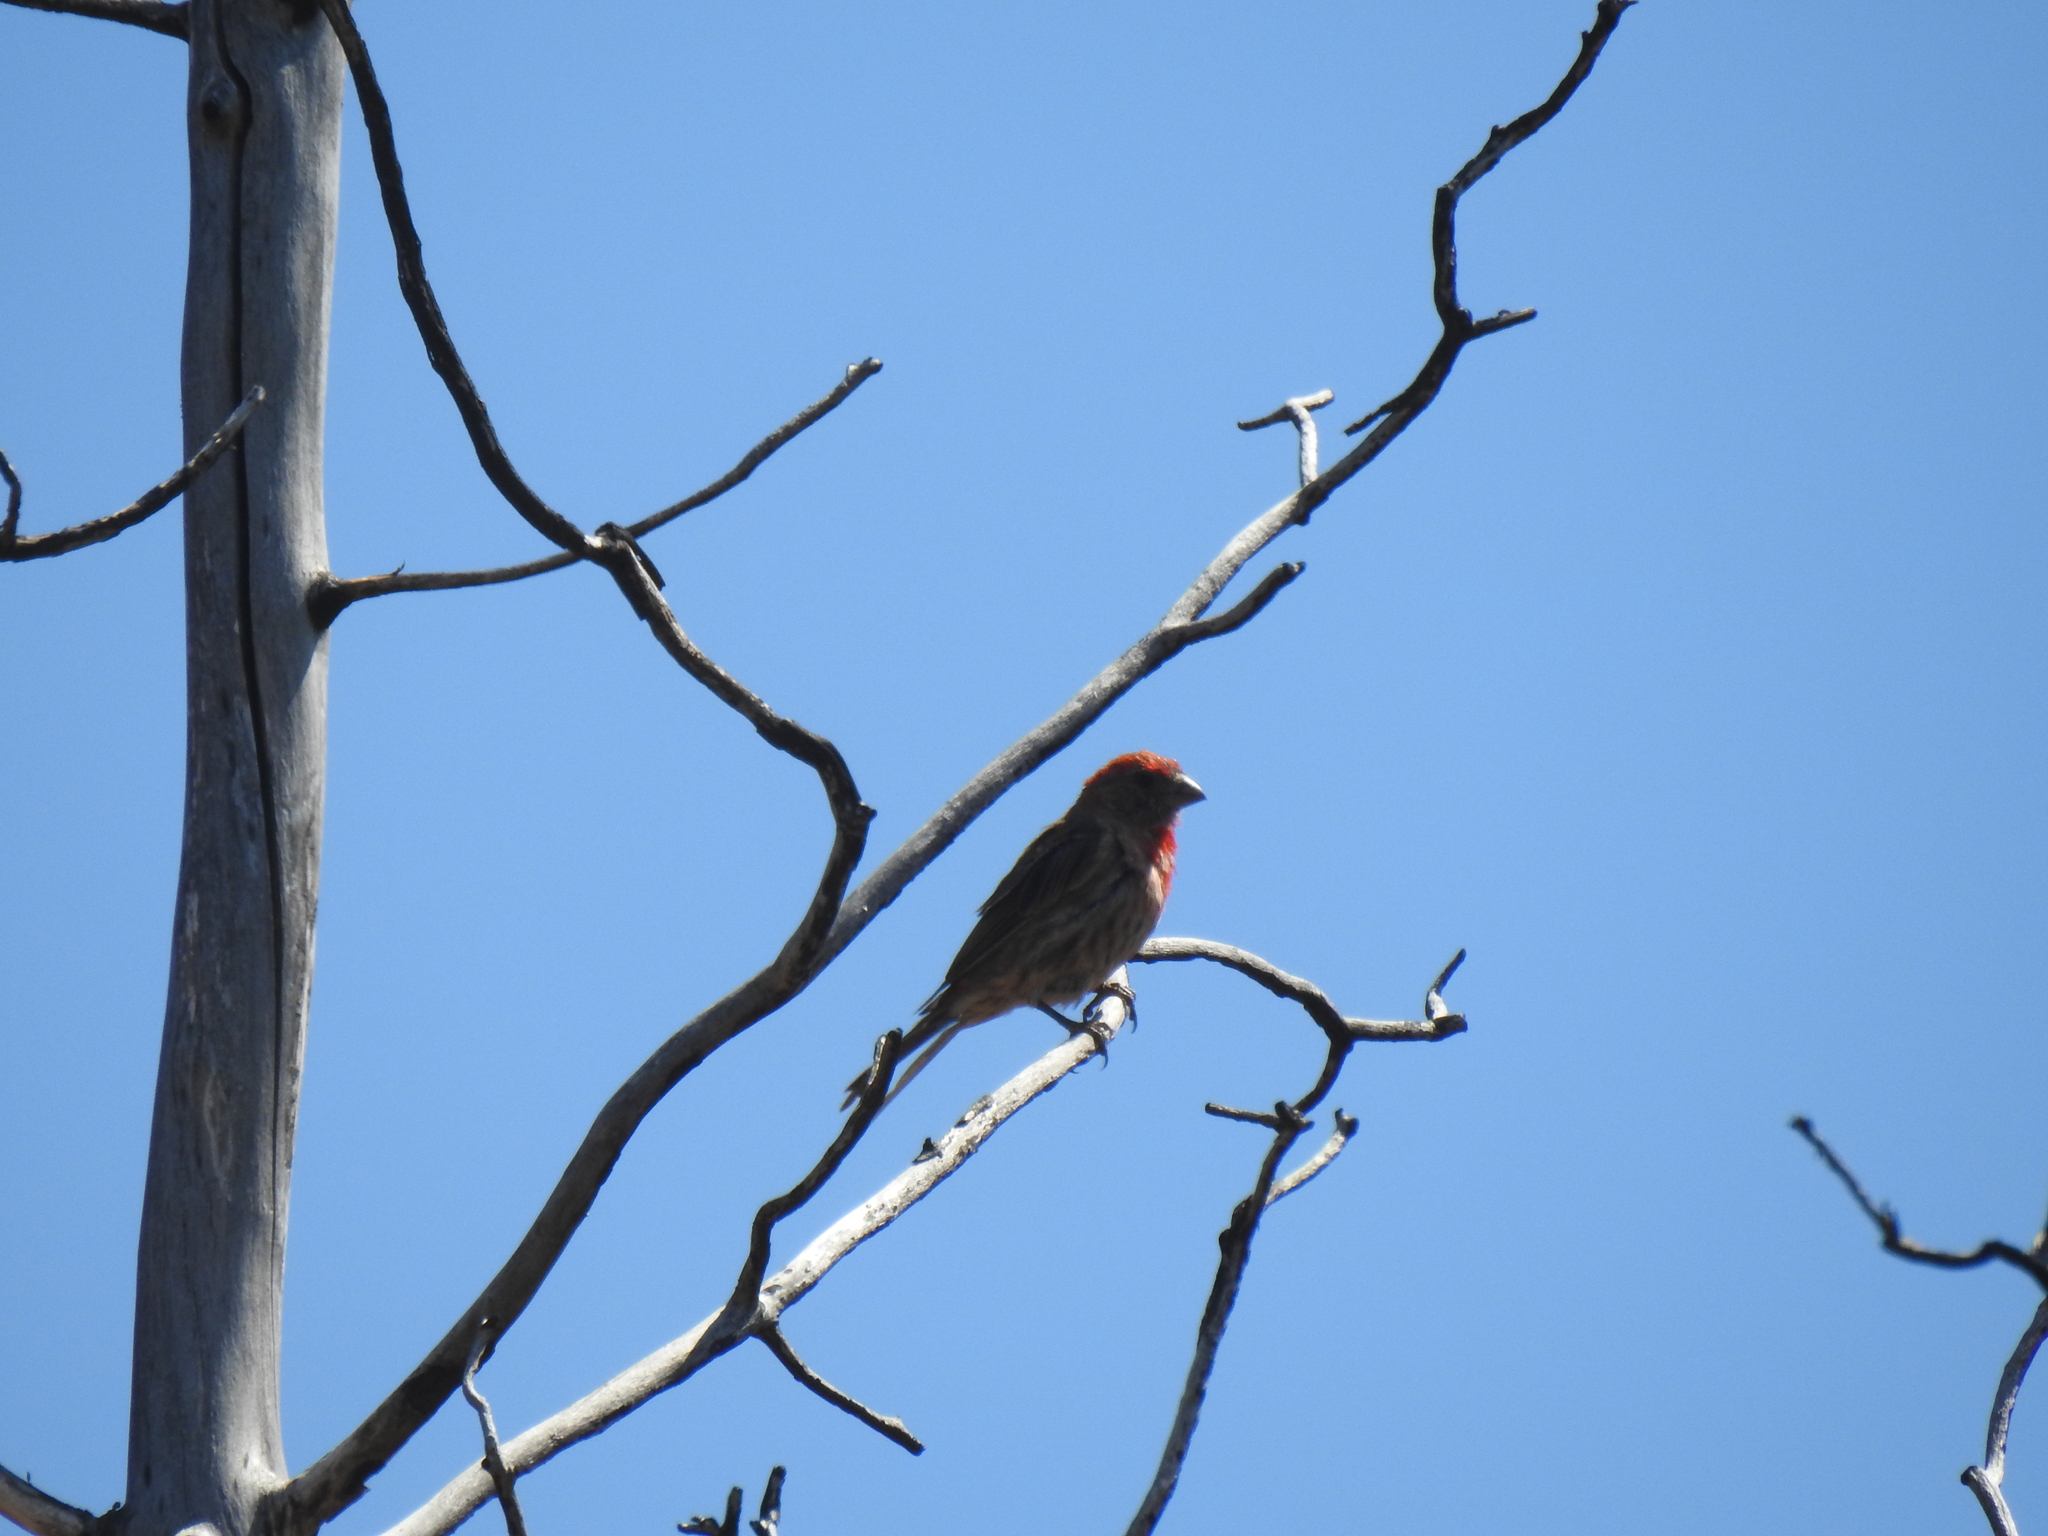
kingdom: Animalia
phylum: Chordata
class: Aves
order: Passeriformes
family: Fringillidae
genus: Haemorhous
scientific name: Haemorhous mexicanus
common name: House finch
